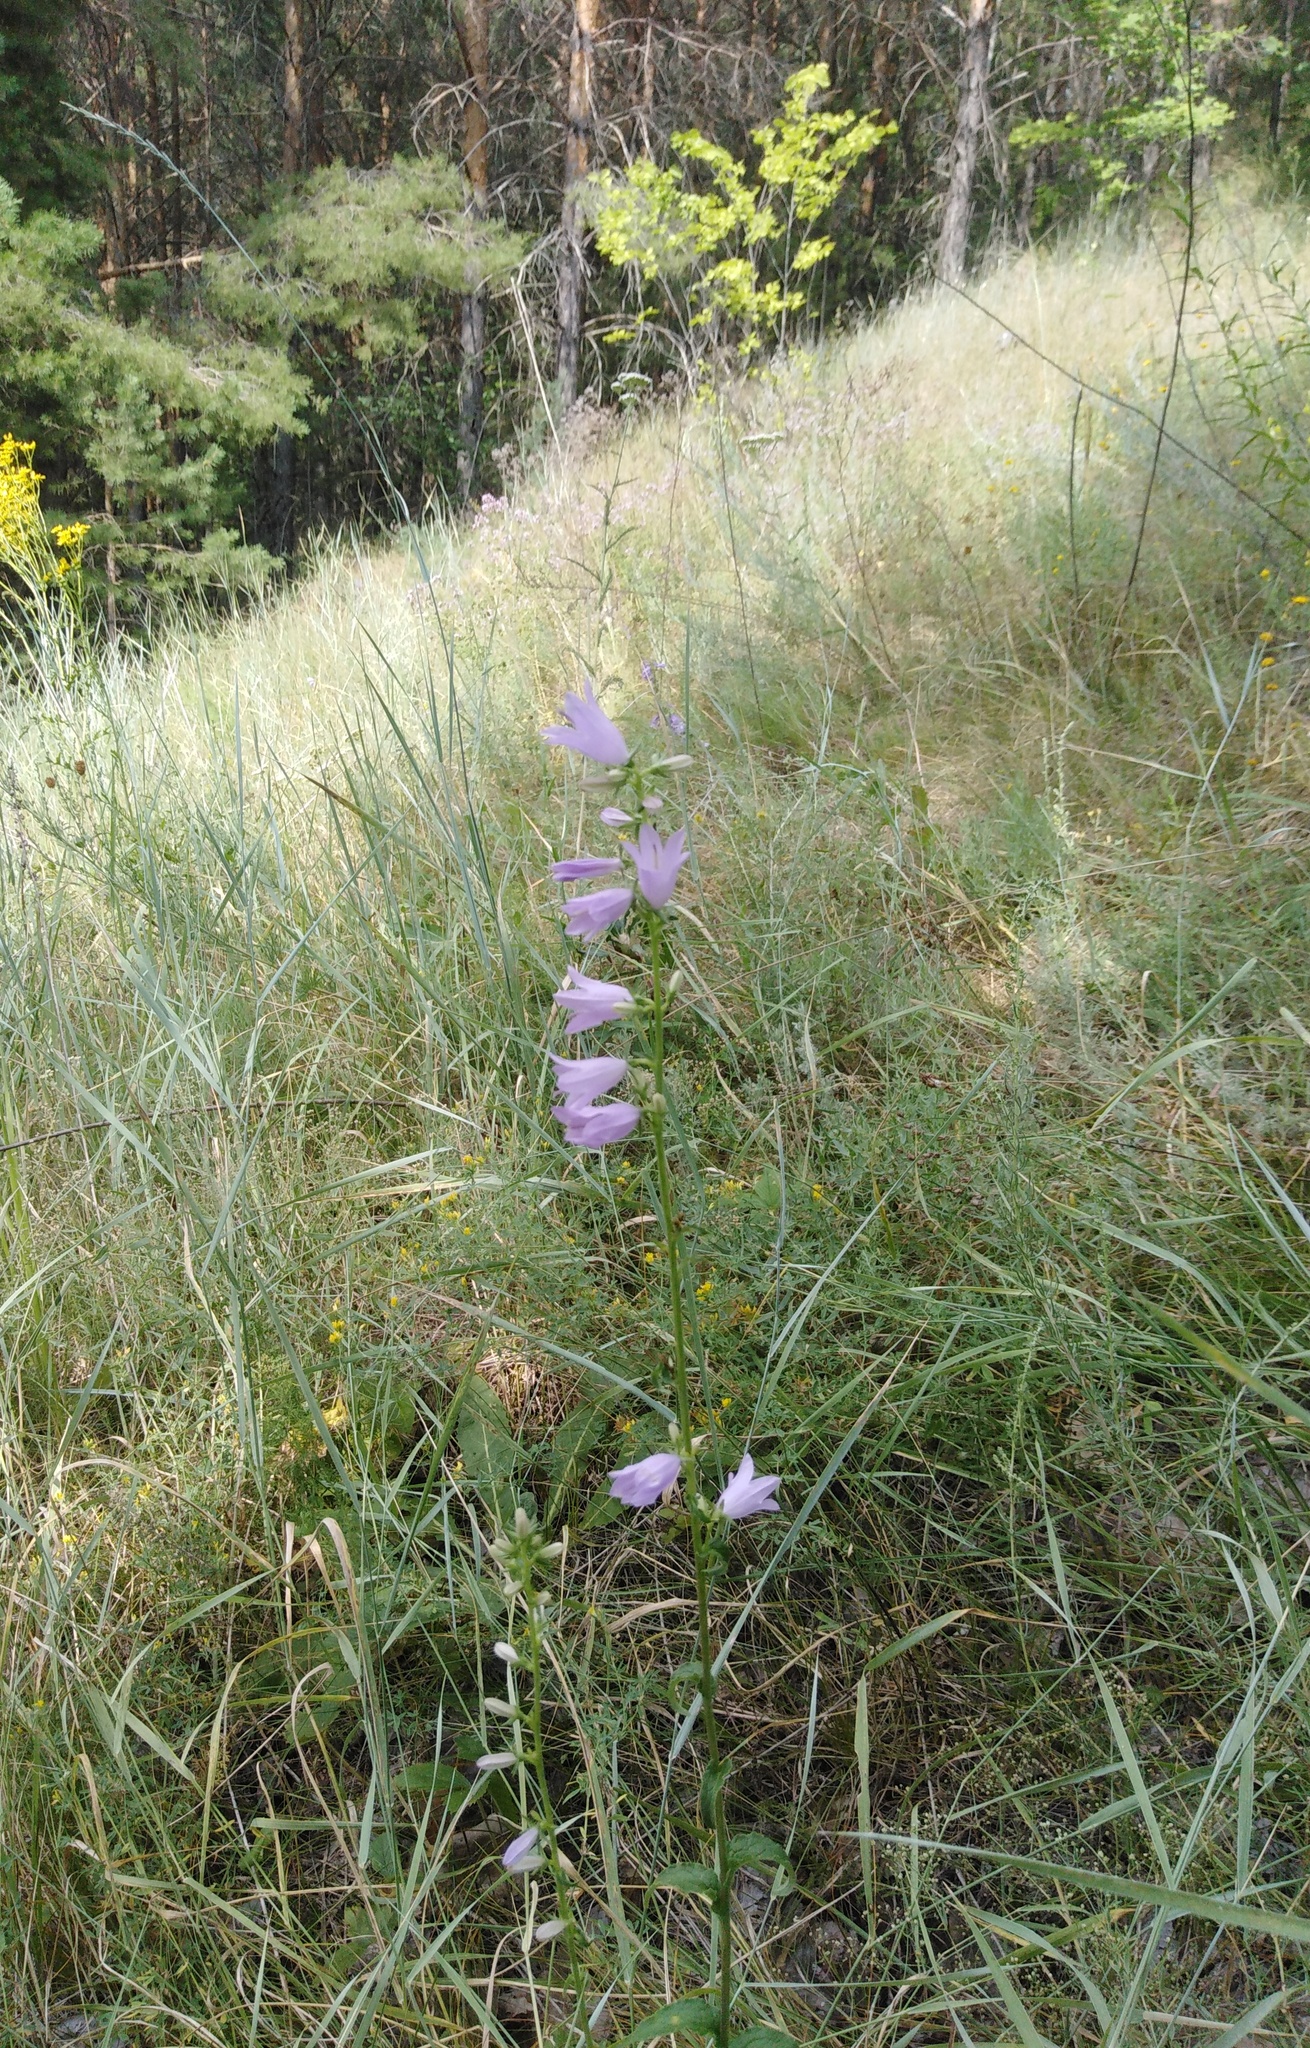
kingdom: Plantae
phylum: Tracheophyta
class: Magnoliopsida
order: Asterales
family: Campanulaceae
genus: Campanula
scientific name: Campanula bononiensis
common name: Pale bellflower
